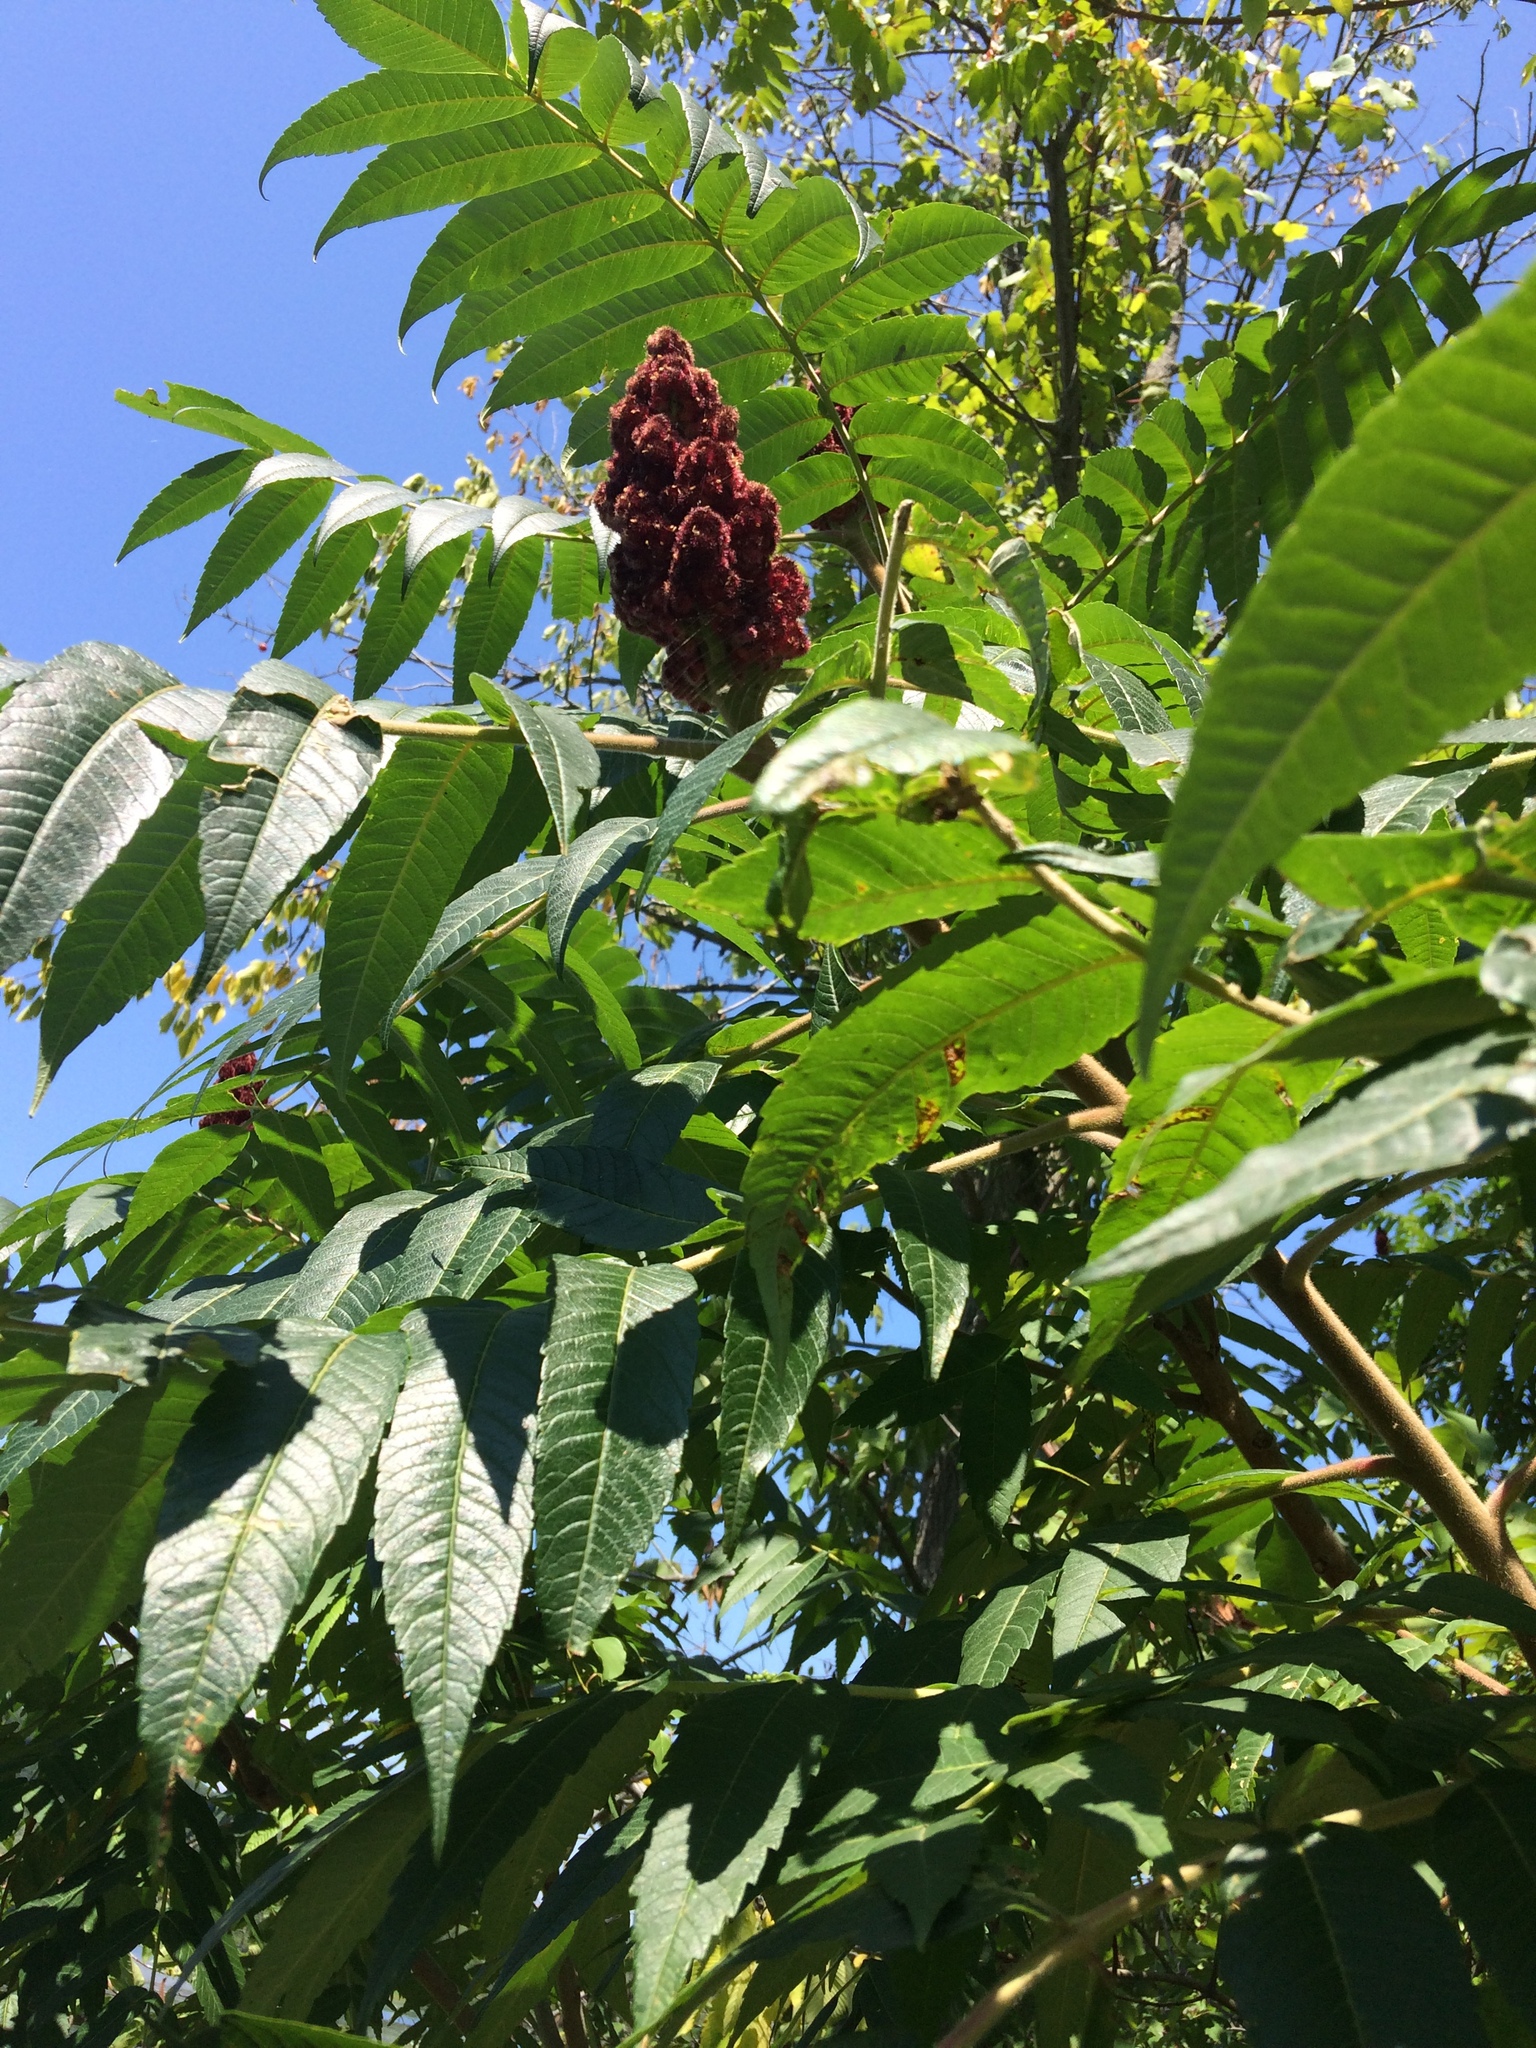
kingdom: Plantae
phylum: Tracheophyta
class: Magnoliopsida
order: Sapindales
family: Anacardiaceae
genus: Rhus
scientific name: Rhus typhina
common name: Staghorn sumac
